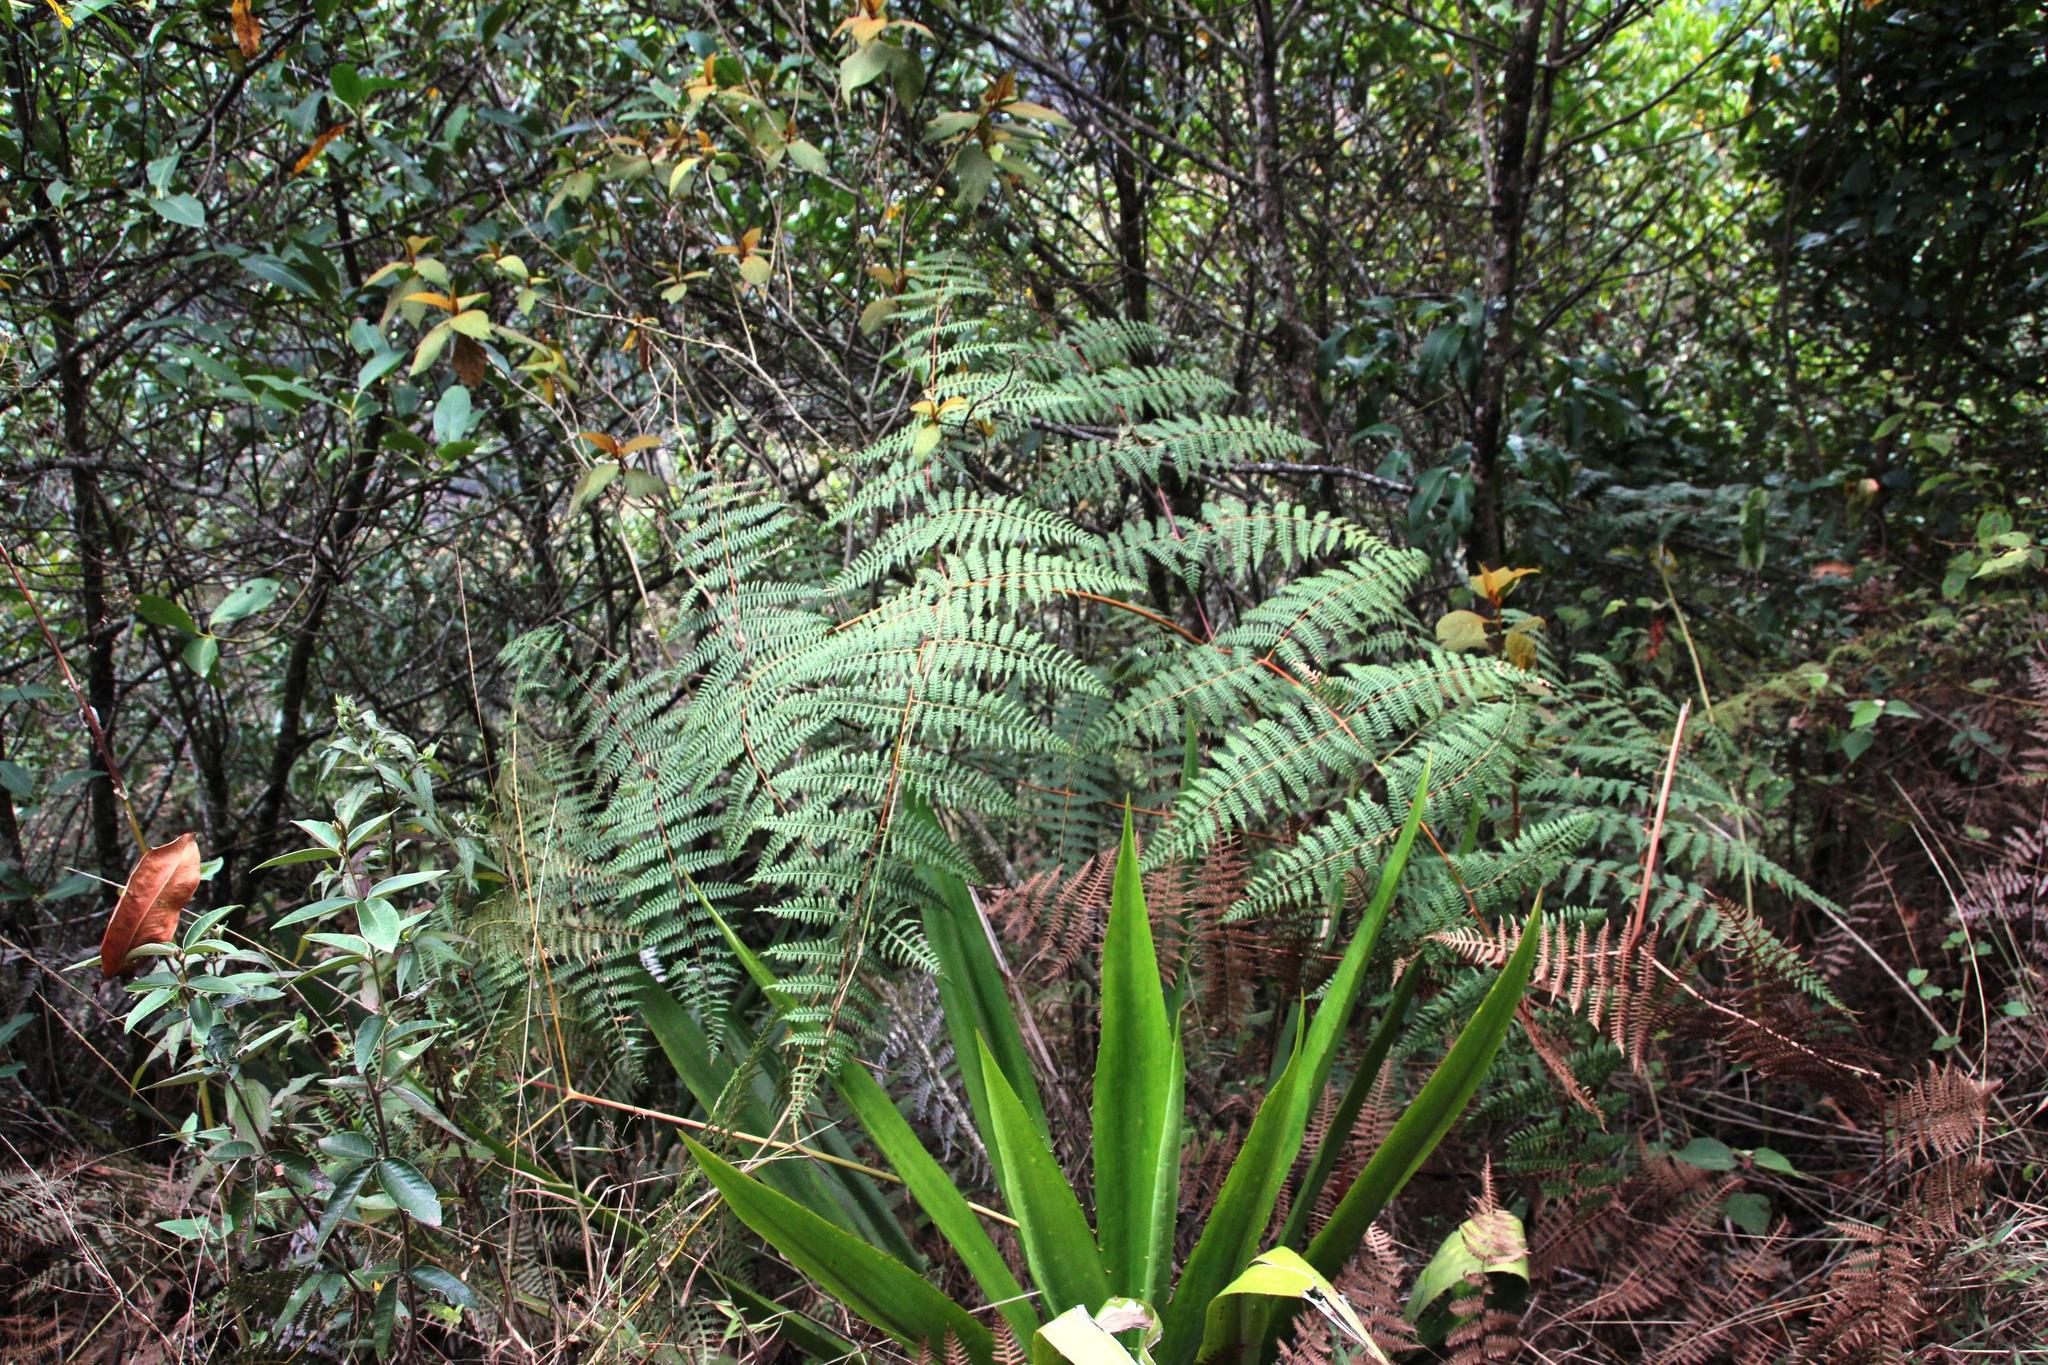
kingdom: Plantae
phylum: Tracheophyta
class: Polypodiopsida
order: Polypodiales
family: Dennstaedtiaceae
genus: Pteridium
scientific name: Pteridium esculentum
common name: Bracken fern
